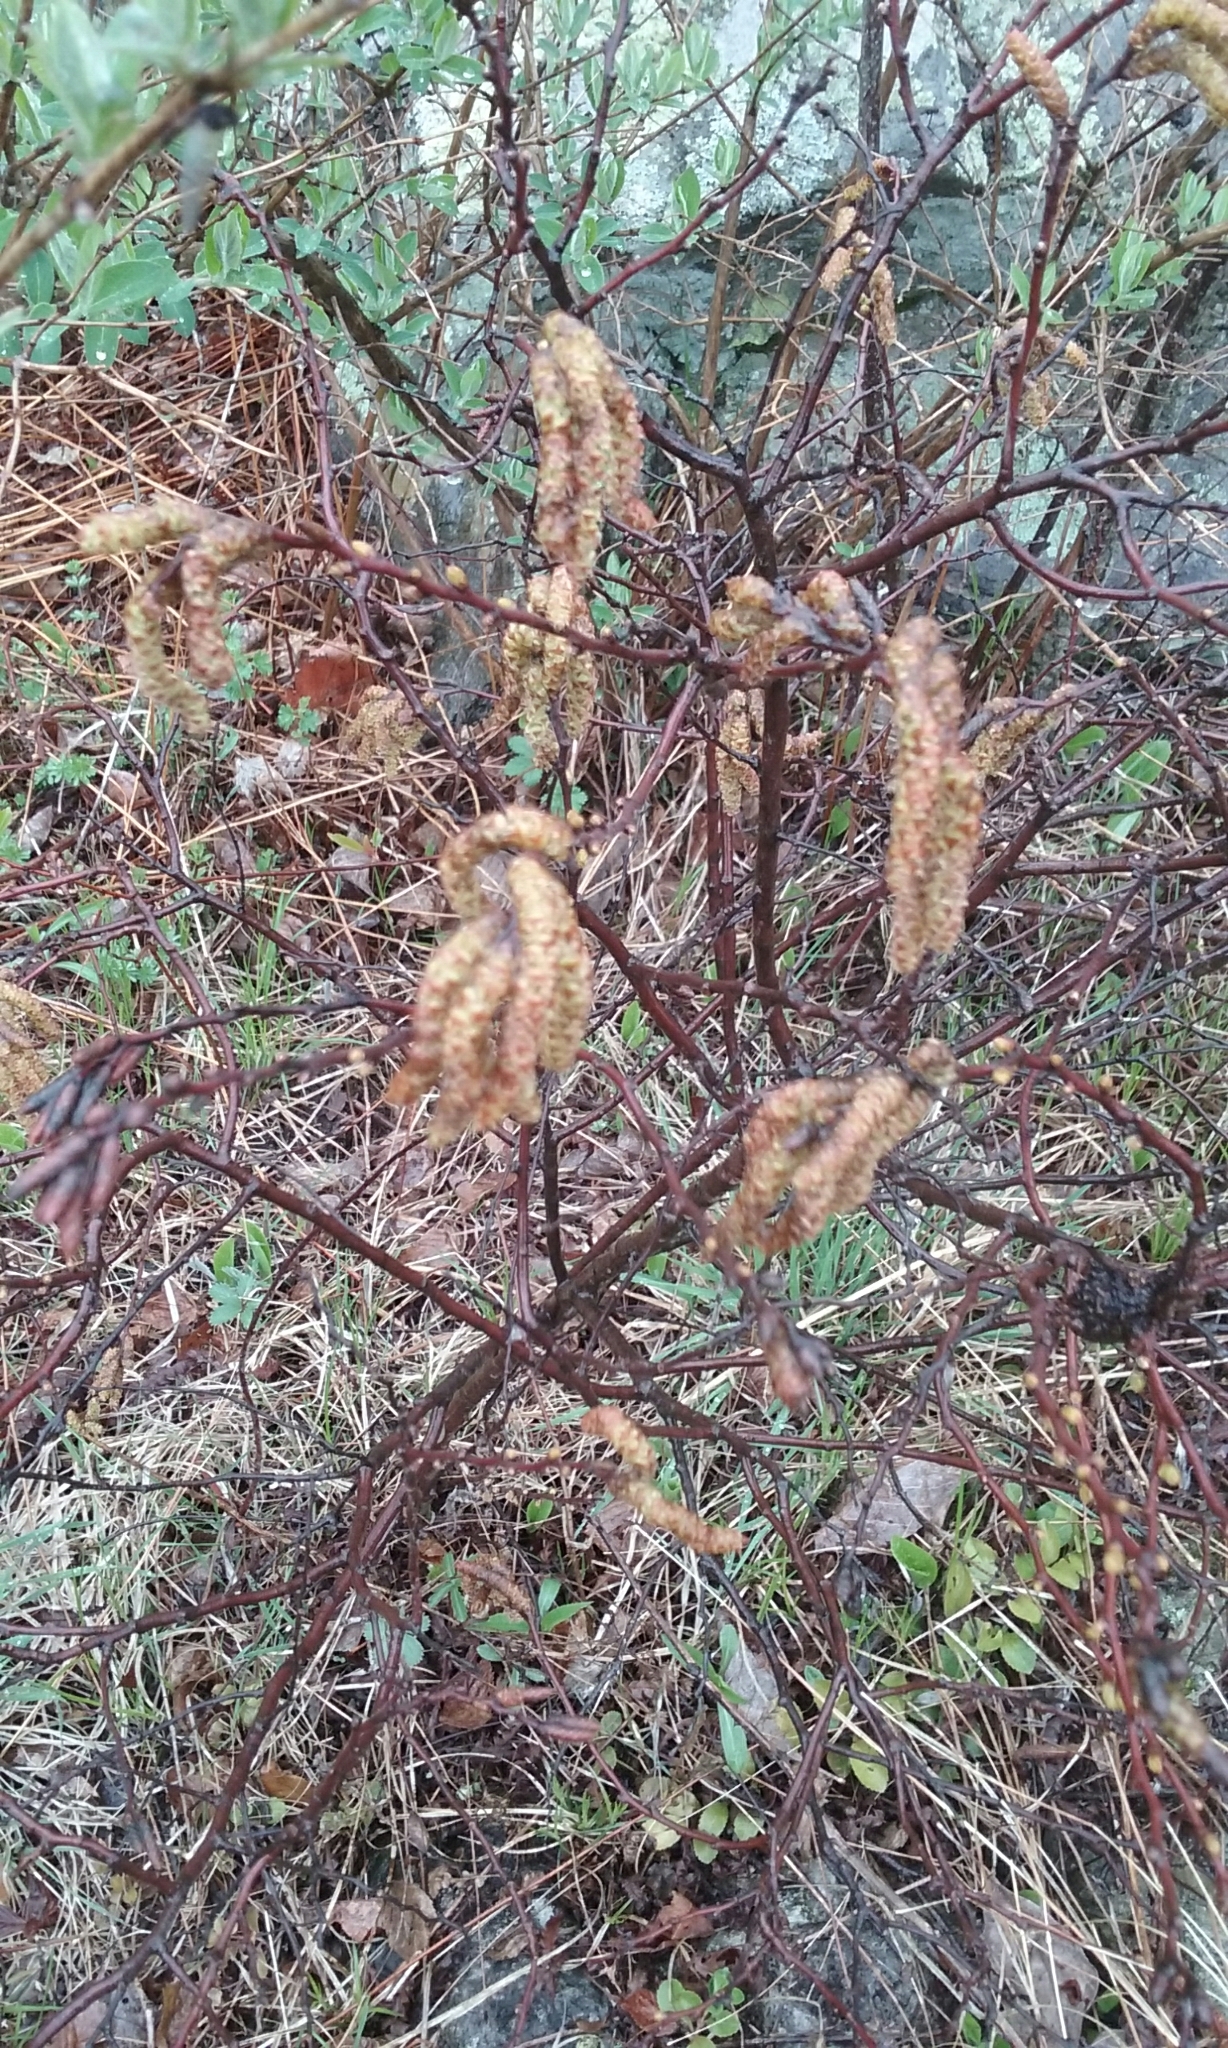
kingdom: Plantae
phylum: Tracheophyta
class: Magnoliopsida
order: Fagales
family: Myricaceae
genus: Comptonia
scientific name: Comptonia peregrina
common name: Sweet-fern
